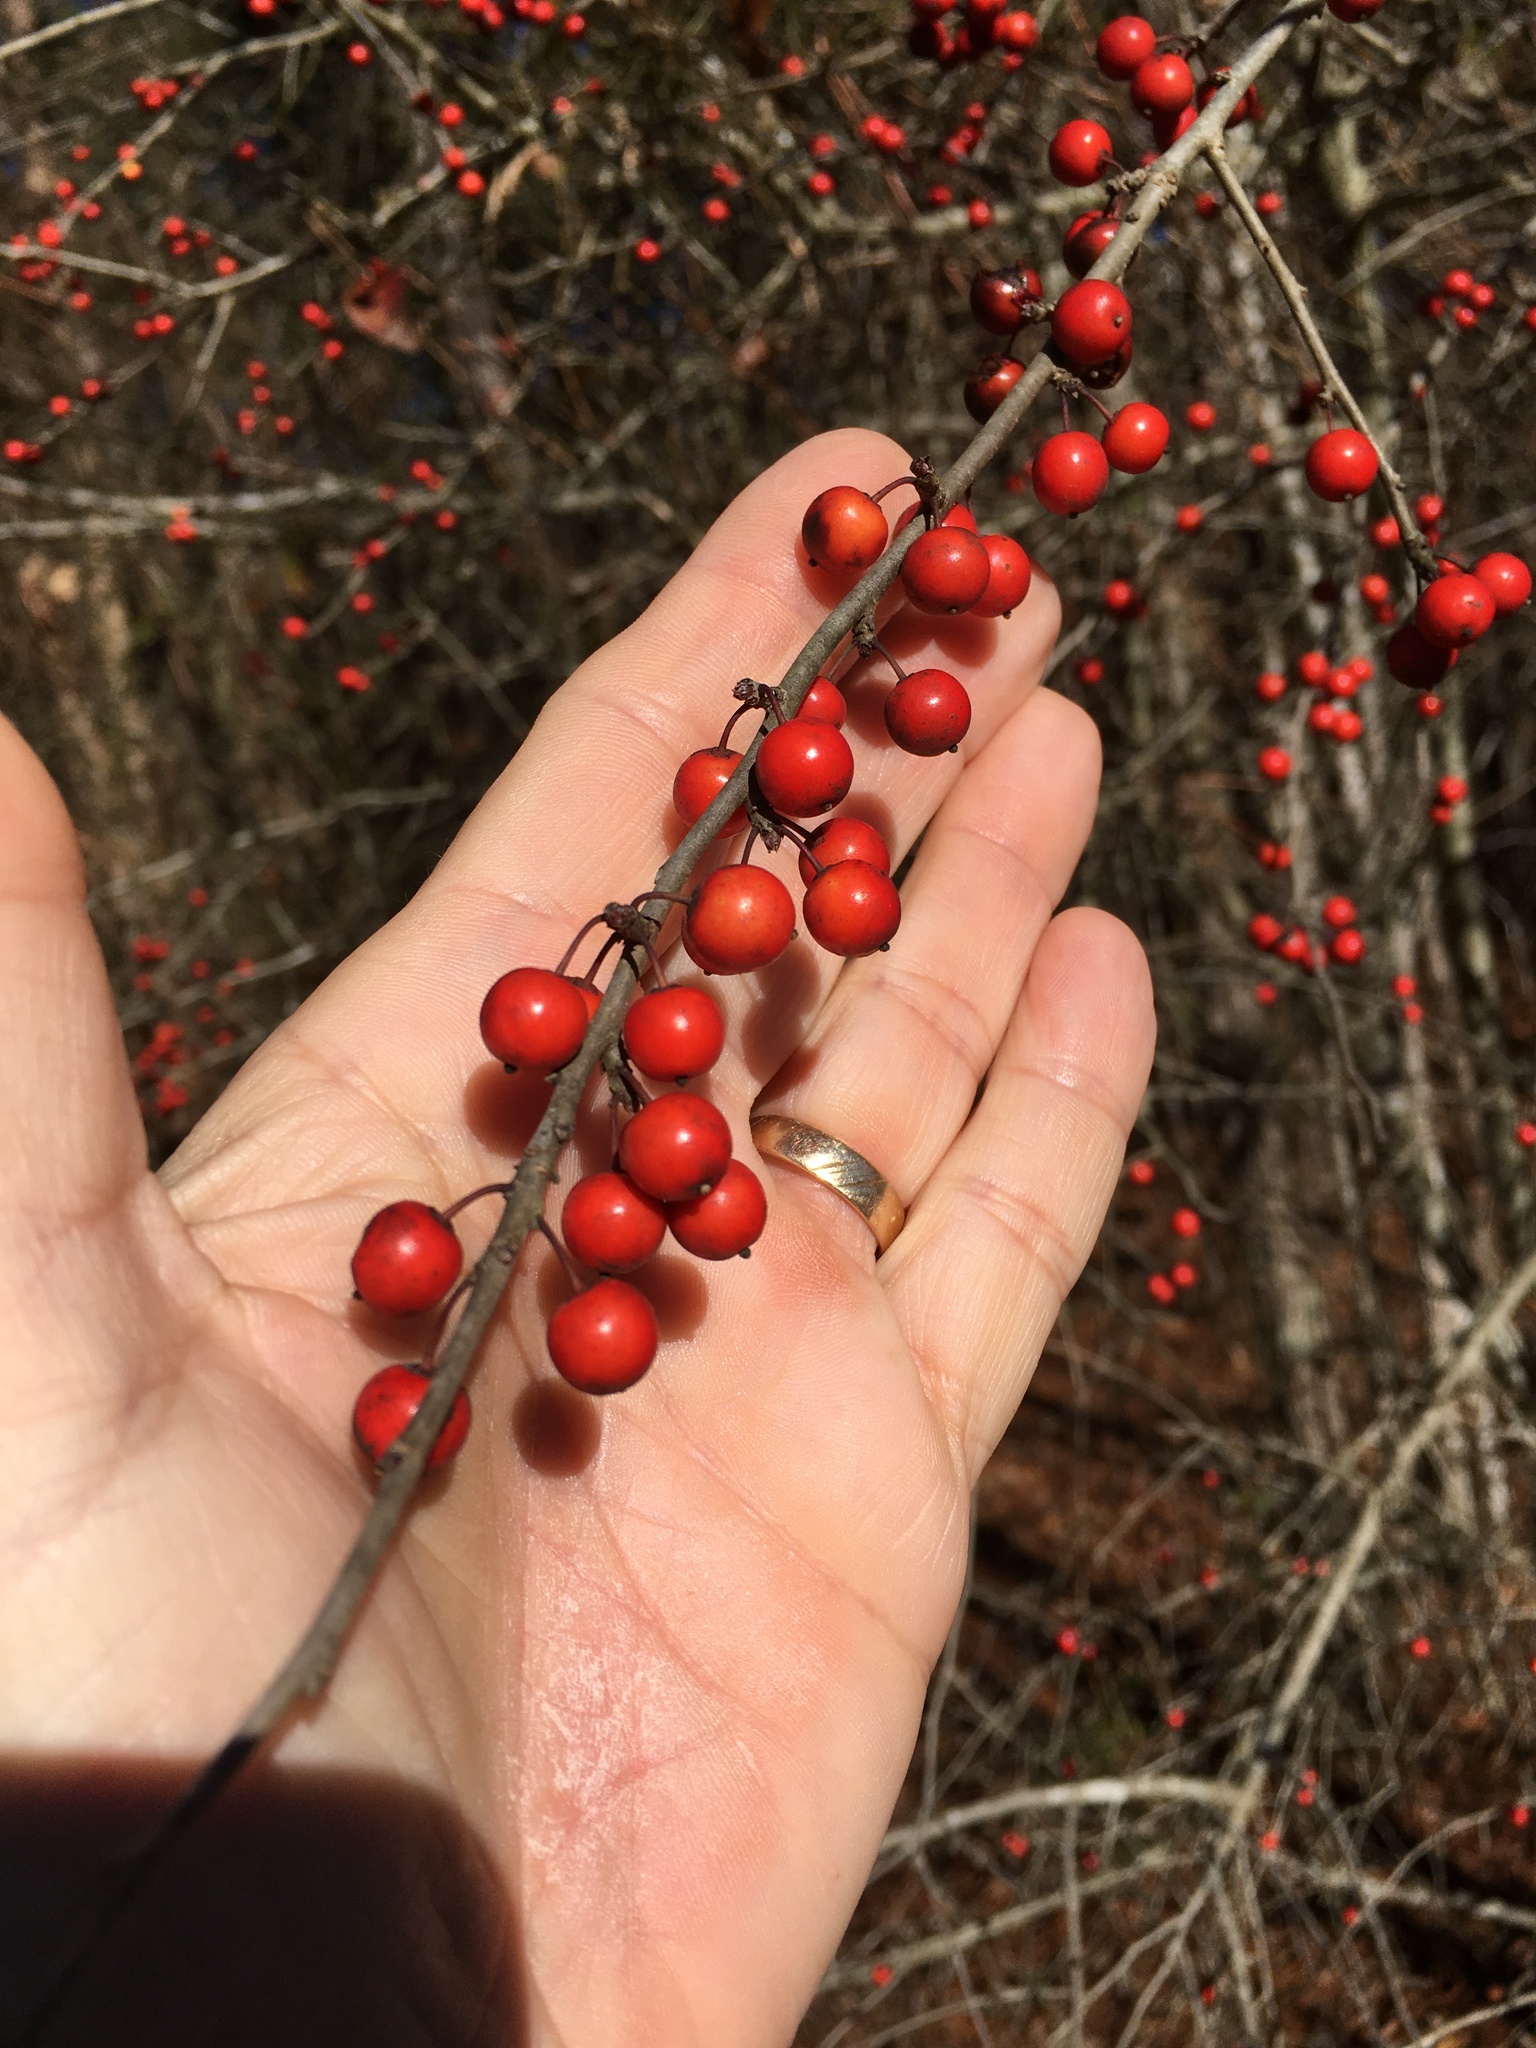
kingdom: Plantae
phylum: Tracheophyta
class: Magnoliopsida
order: Aquifoliales
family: Aquifoliaceae
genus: Ilex
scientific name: Ilex verticillata
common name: Virginia winterberry
